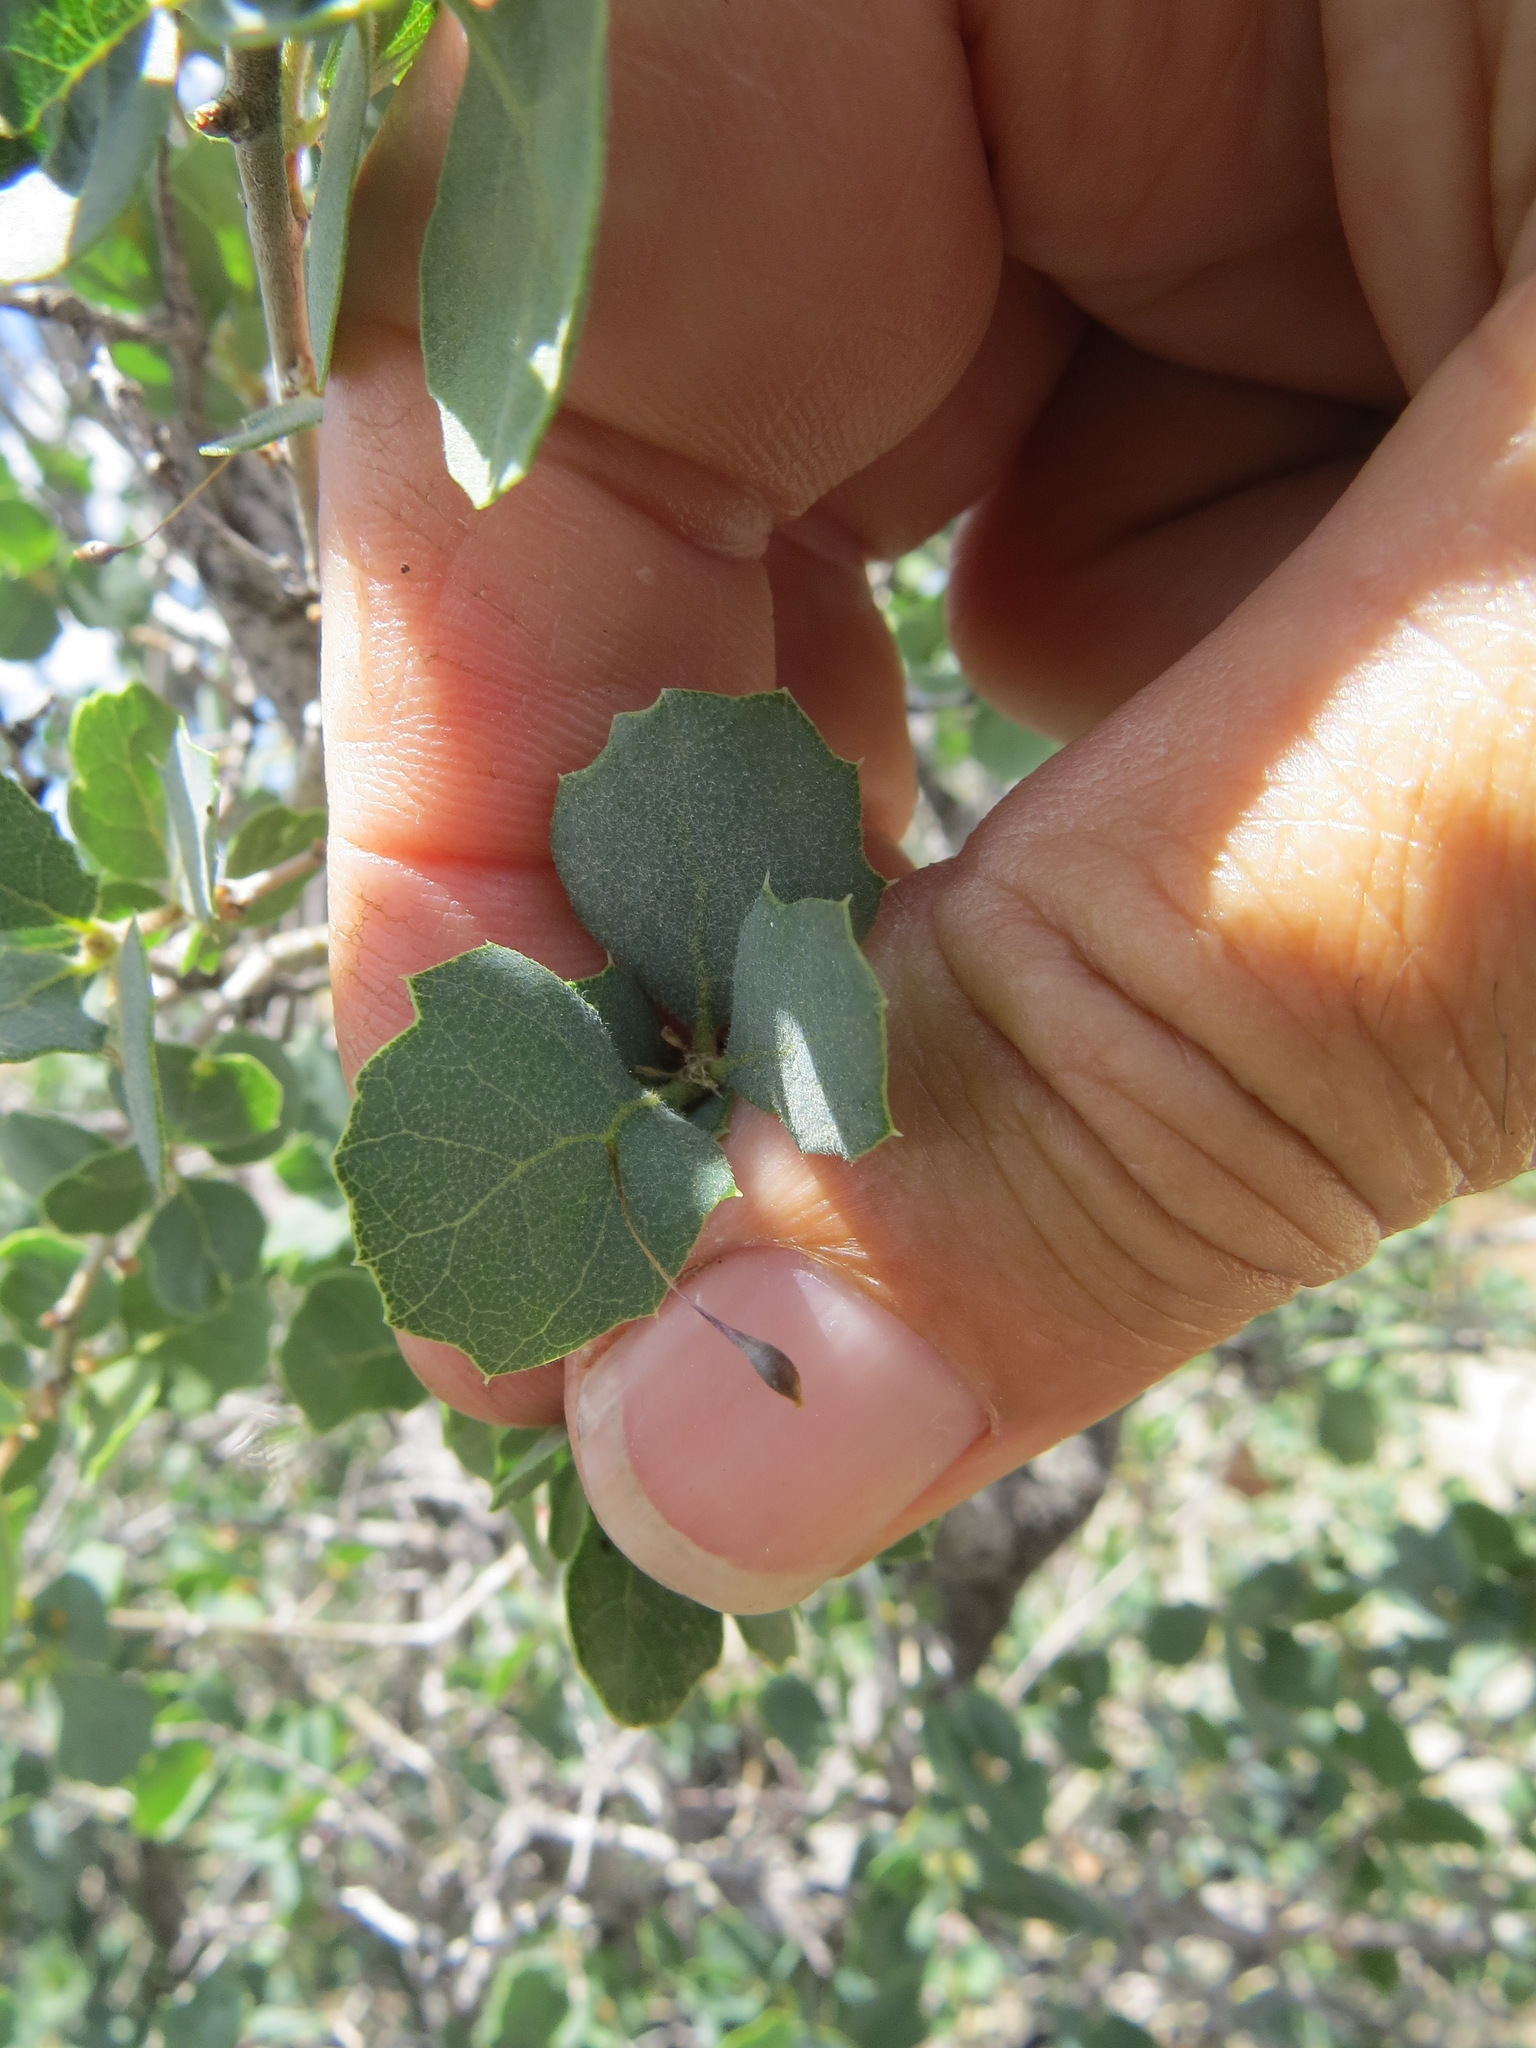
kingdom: Animalia
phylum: Arthropoda
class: Insecta
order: Hymenoptera
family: Cynipidae
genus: Andricus
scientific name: Andricus
